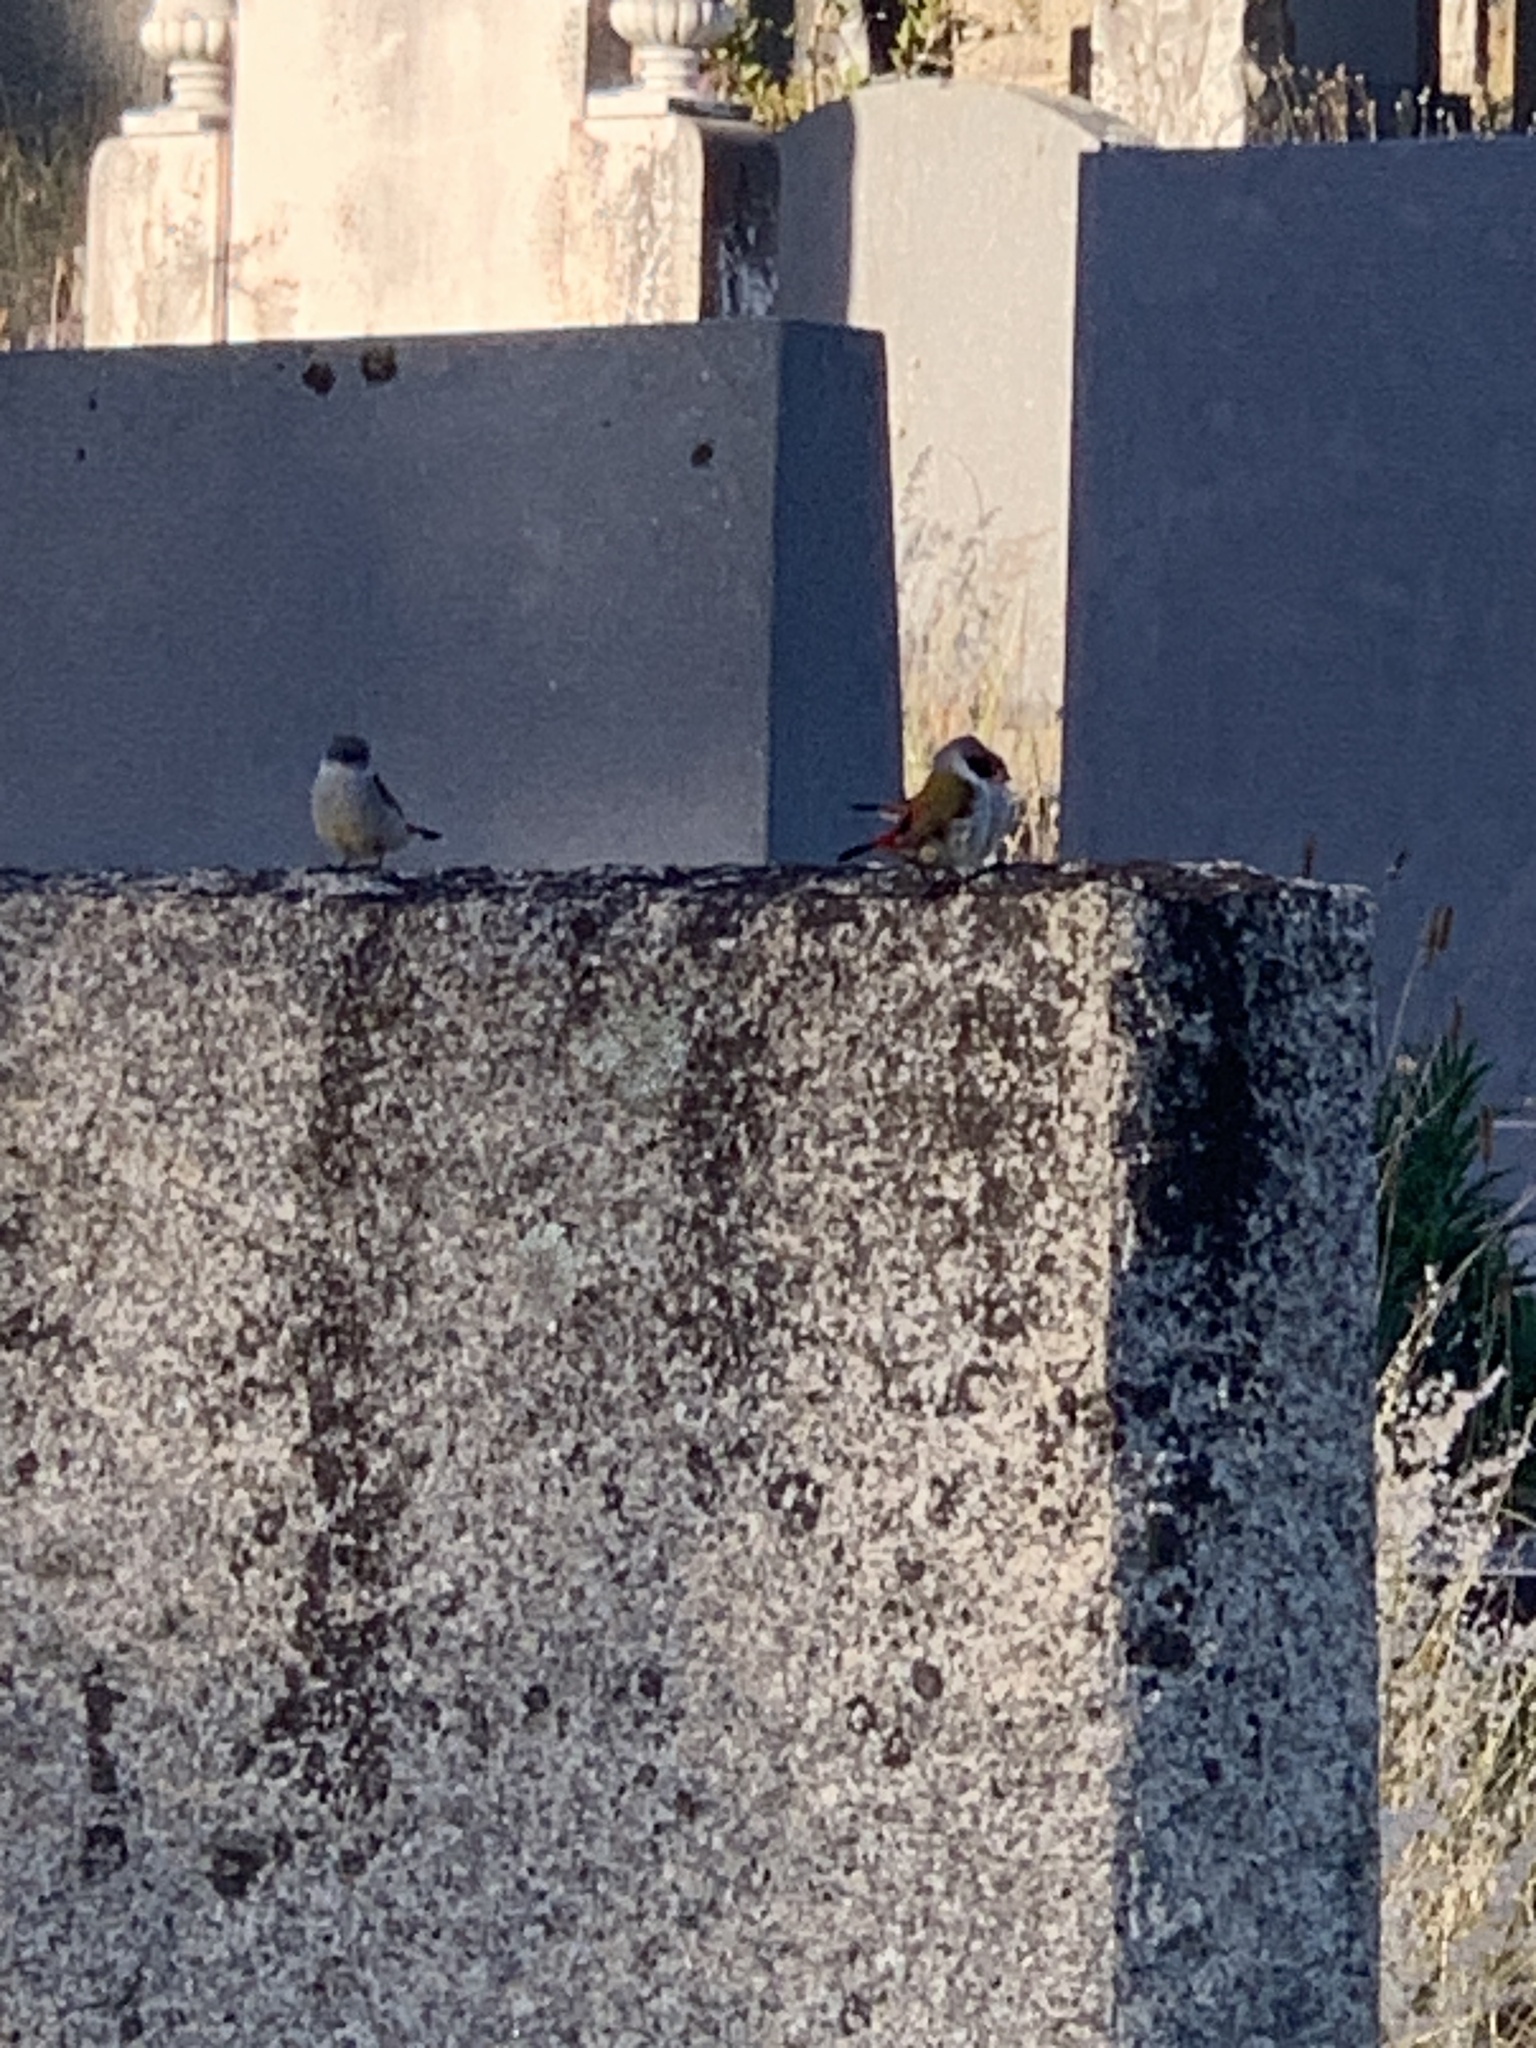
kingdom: Animalia
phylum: Chordata
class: Aves
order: Passeriformes
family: Estrildidae
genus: Coccopygia
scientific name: Coccopygia melanotis
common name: Swee waxbill
